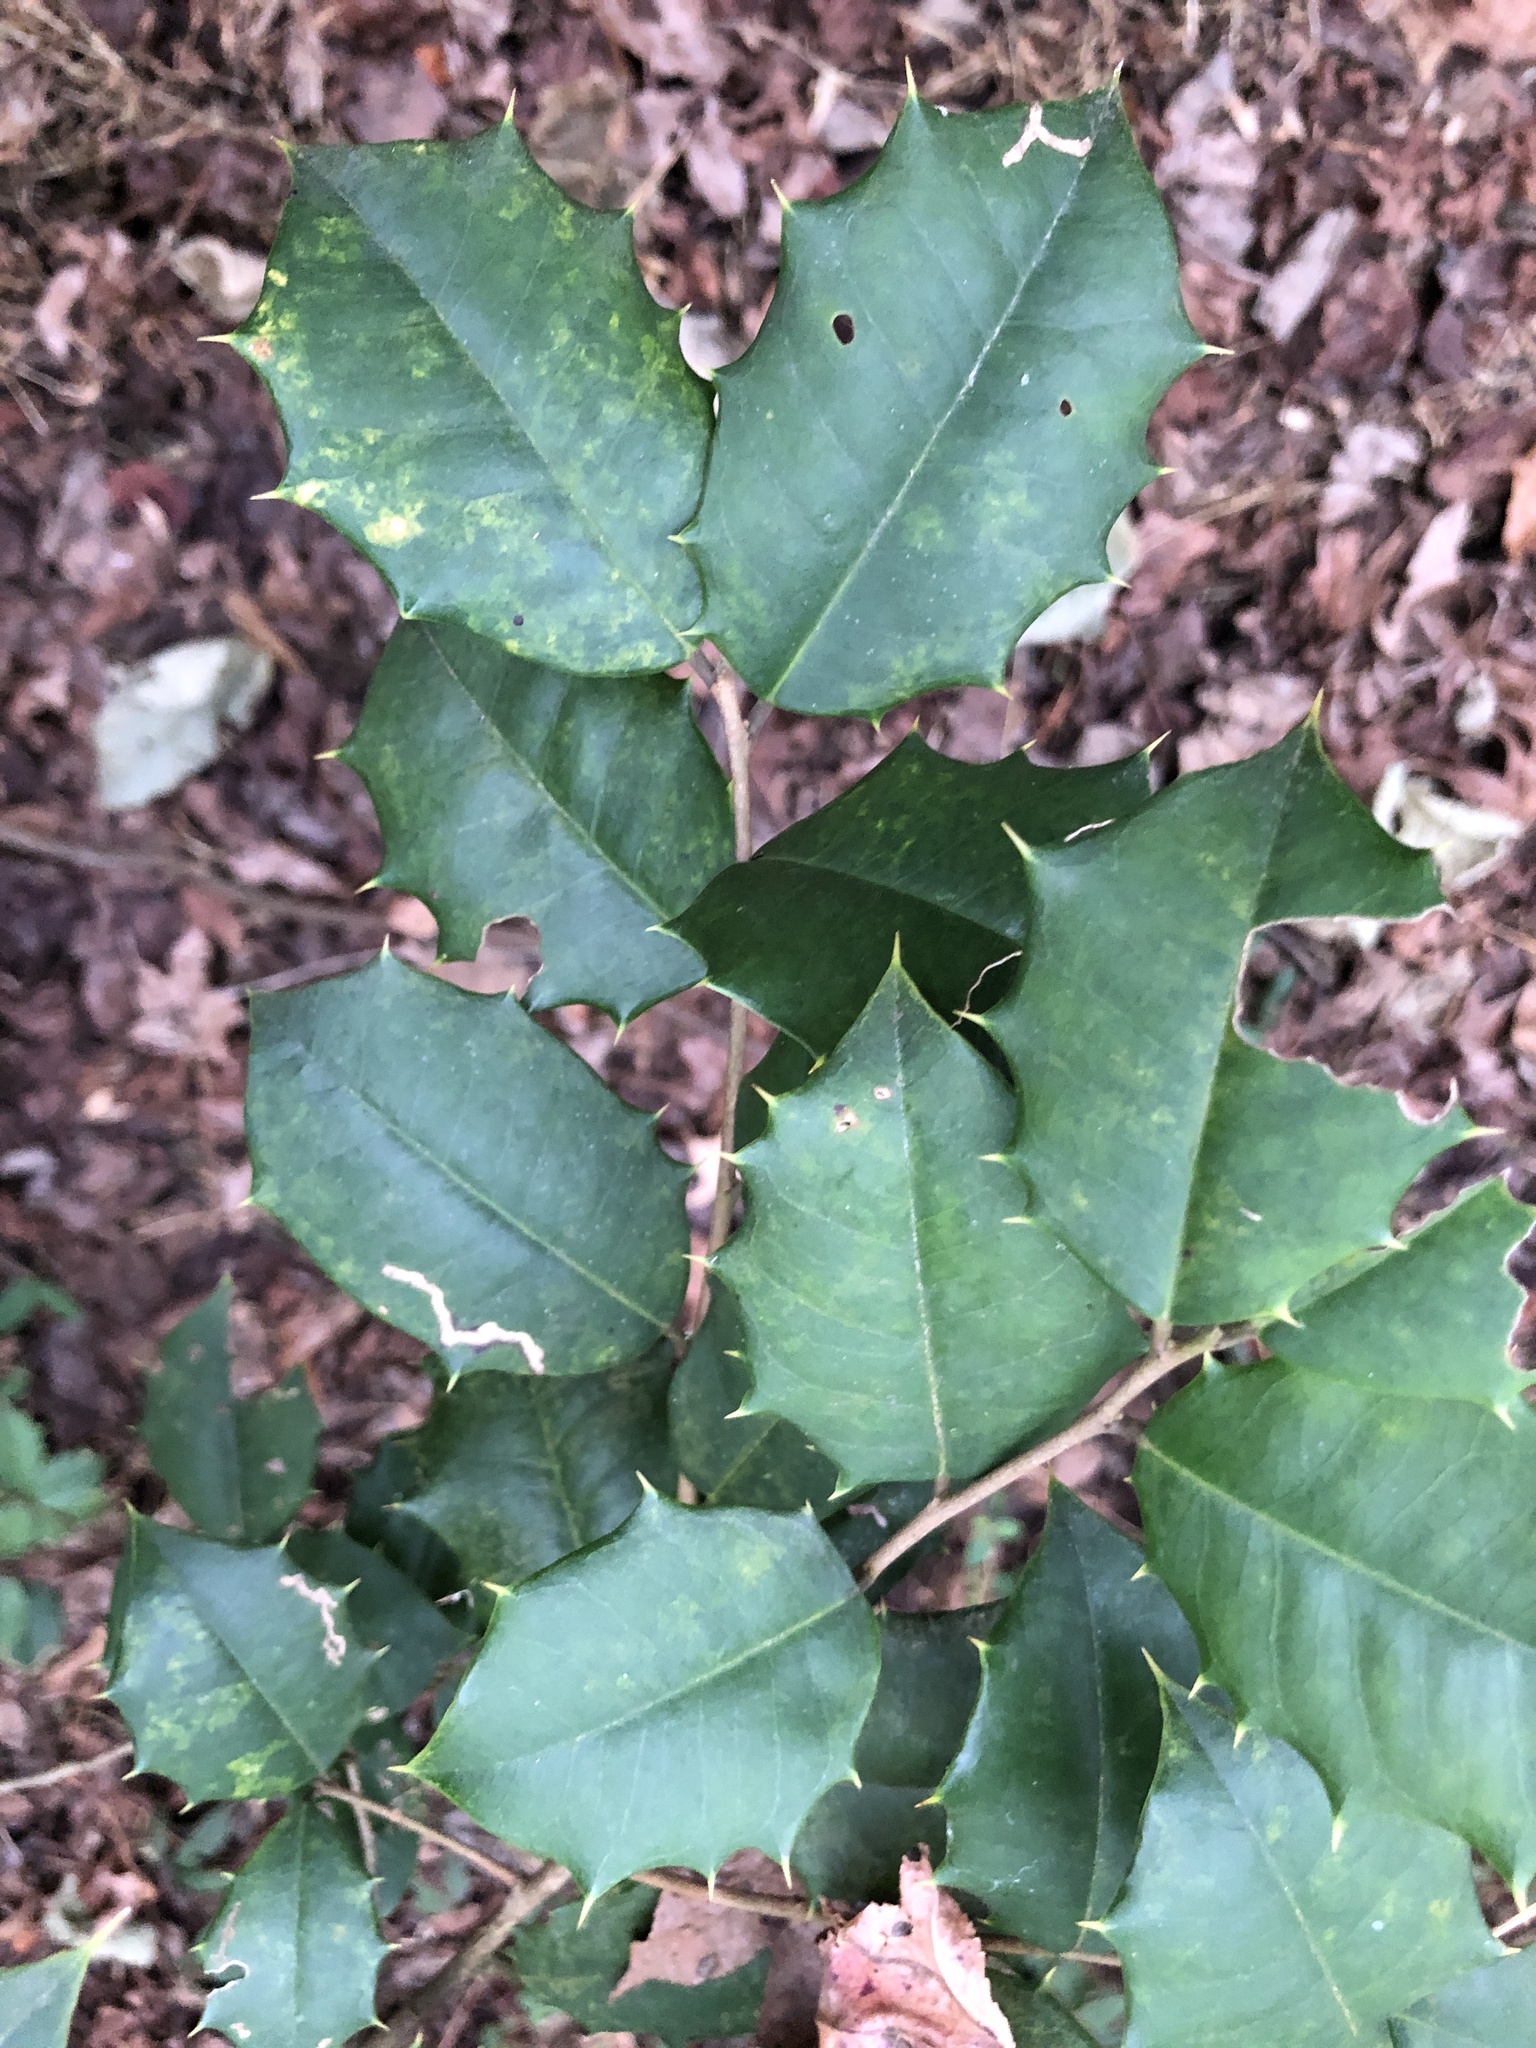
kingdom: Plantae
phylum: Tracheophyta
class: Magnoliopsida
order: Aquifoliales
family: Aquifoliaceae
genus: Ilex
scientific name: Ilex opaca
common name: American holly
